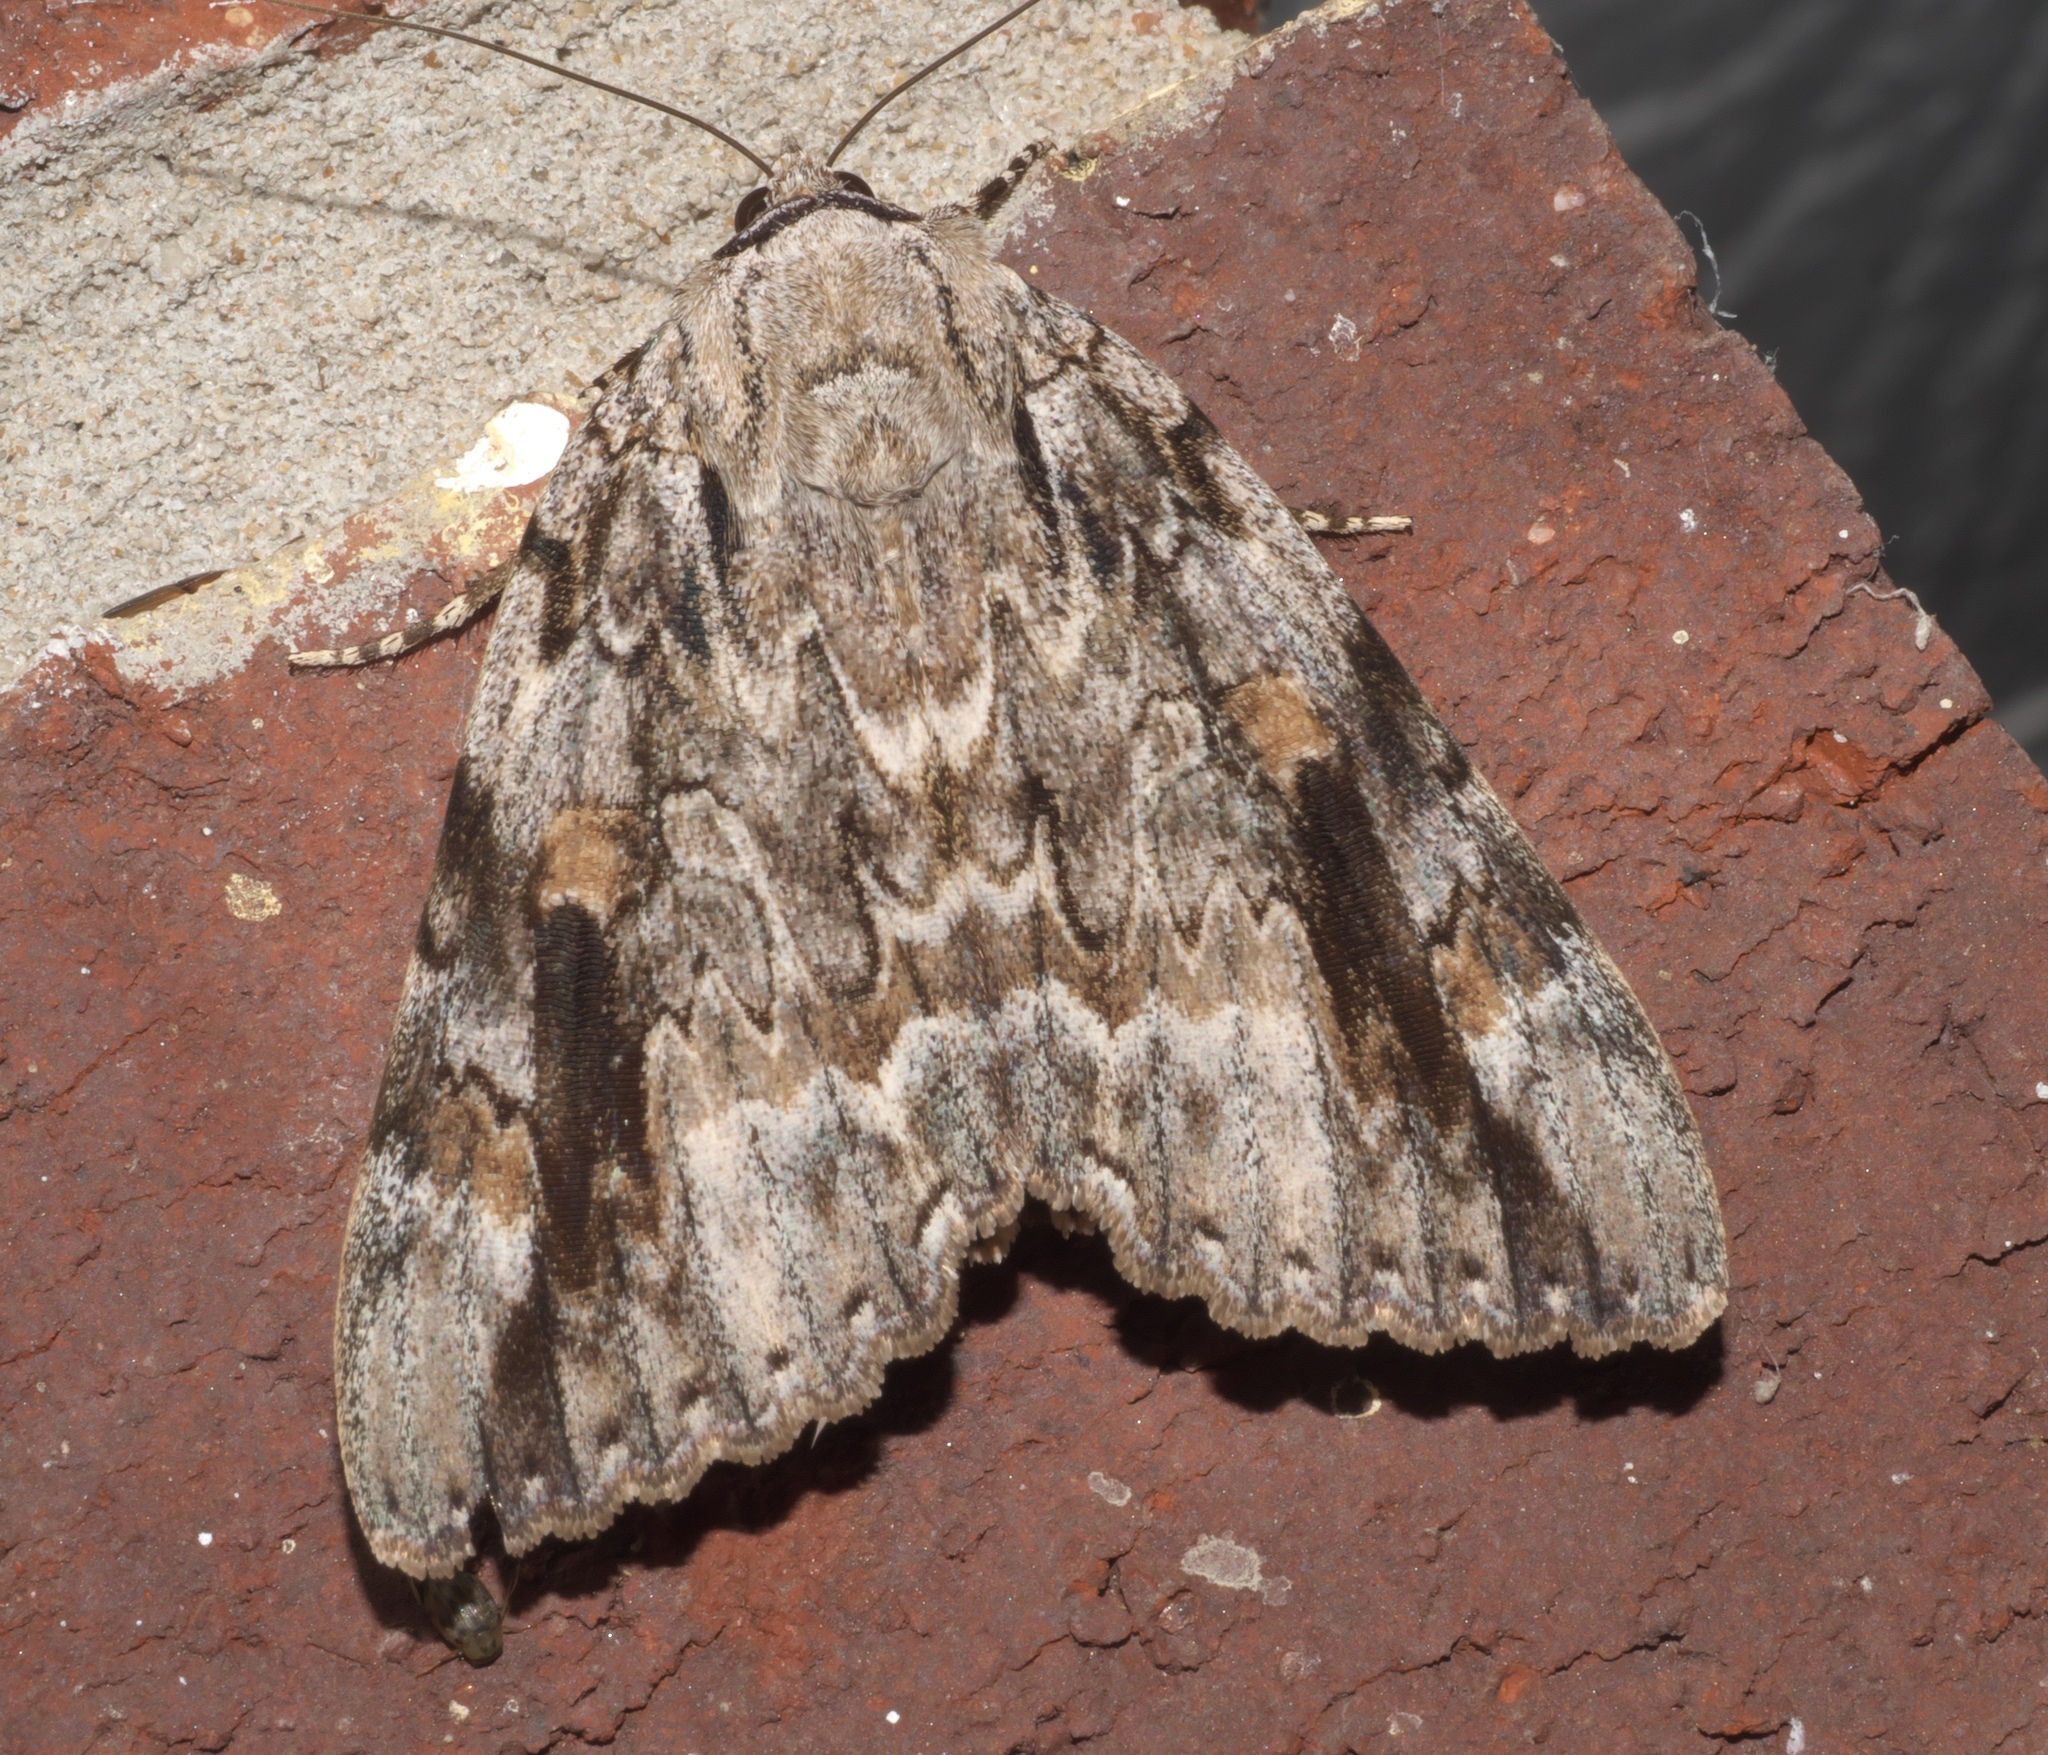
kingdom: Animalia
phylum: Arthropoda
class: Insecta
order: Lepidoptera
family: Erebidae
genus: Catocala
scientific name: Catocala maestosa
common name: Sad underwing
